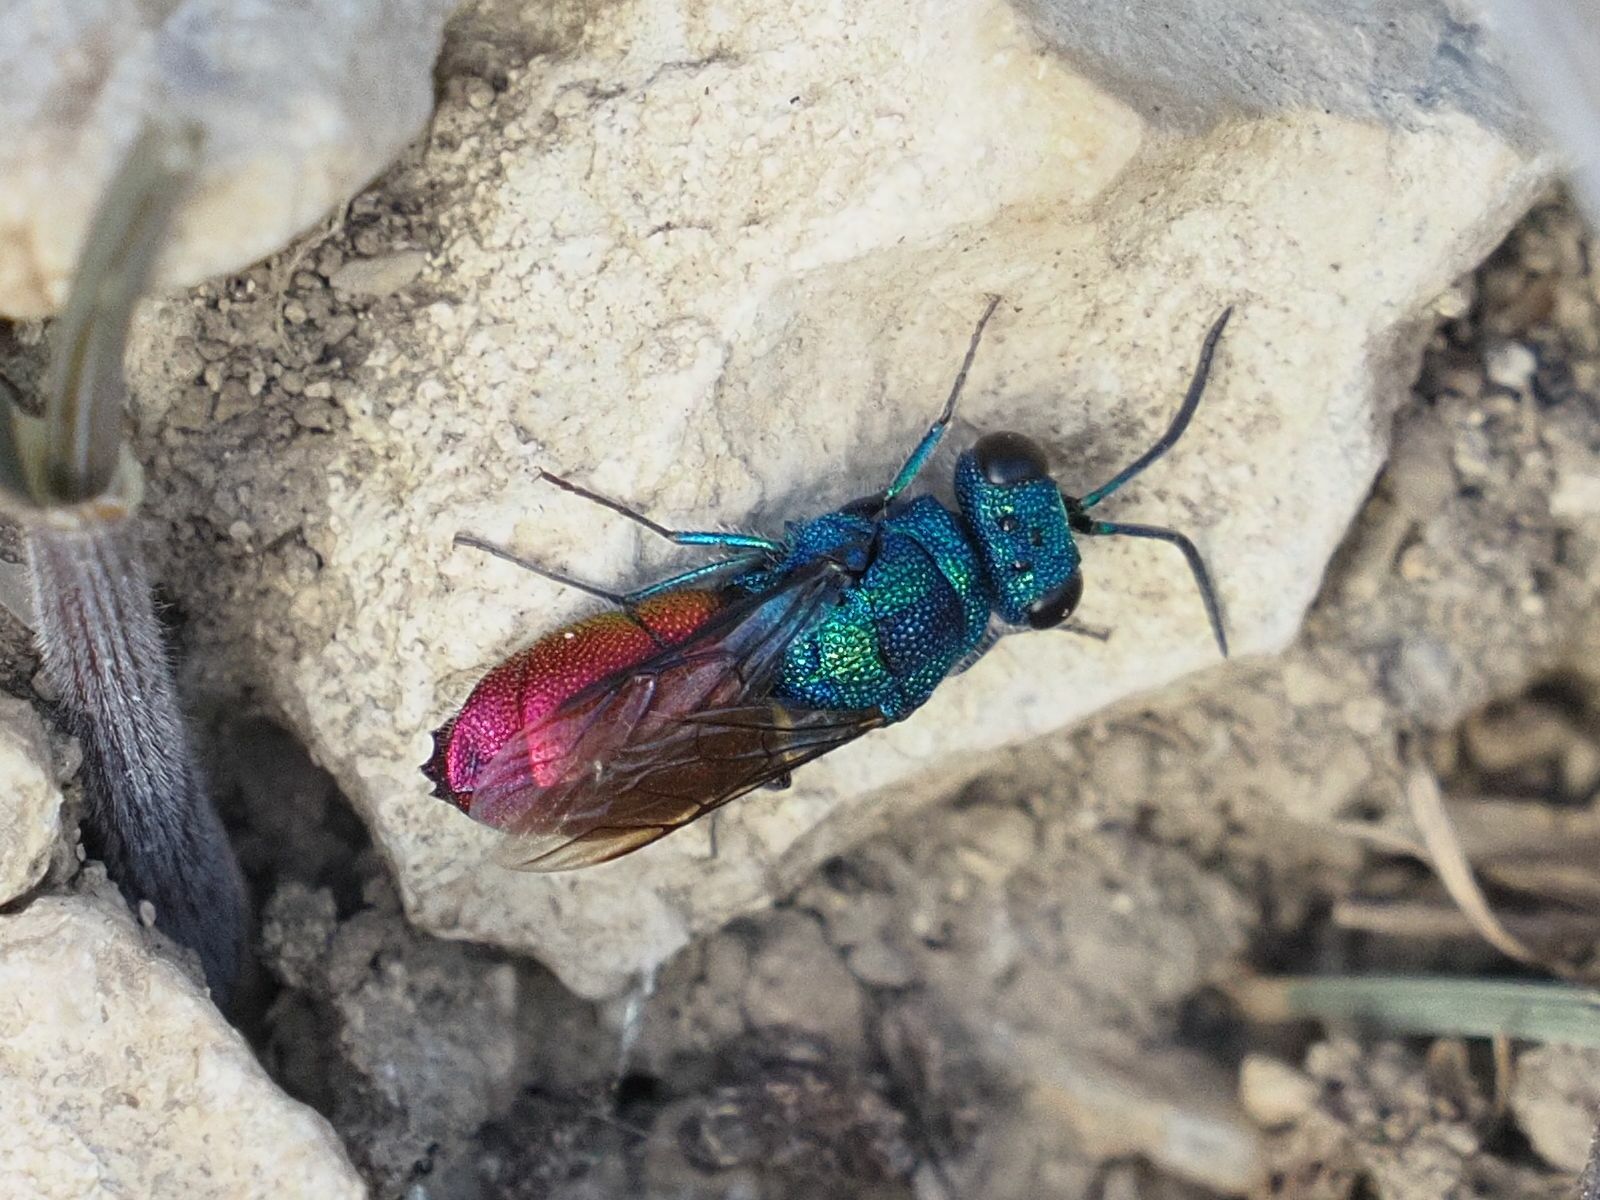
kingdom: Animalia
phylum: Arthropoda
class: Insecta
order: Hymenoptera
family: Chrysididae
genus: Chrysis
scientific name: Chrysis inaequalis
